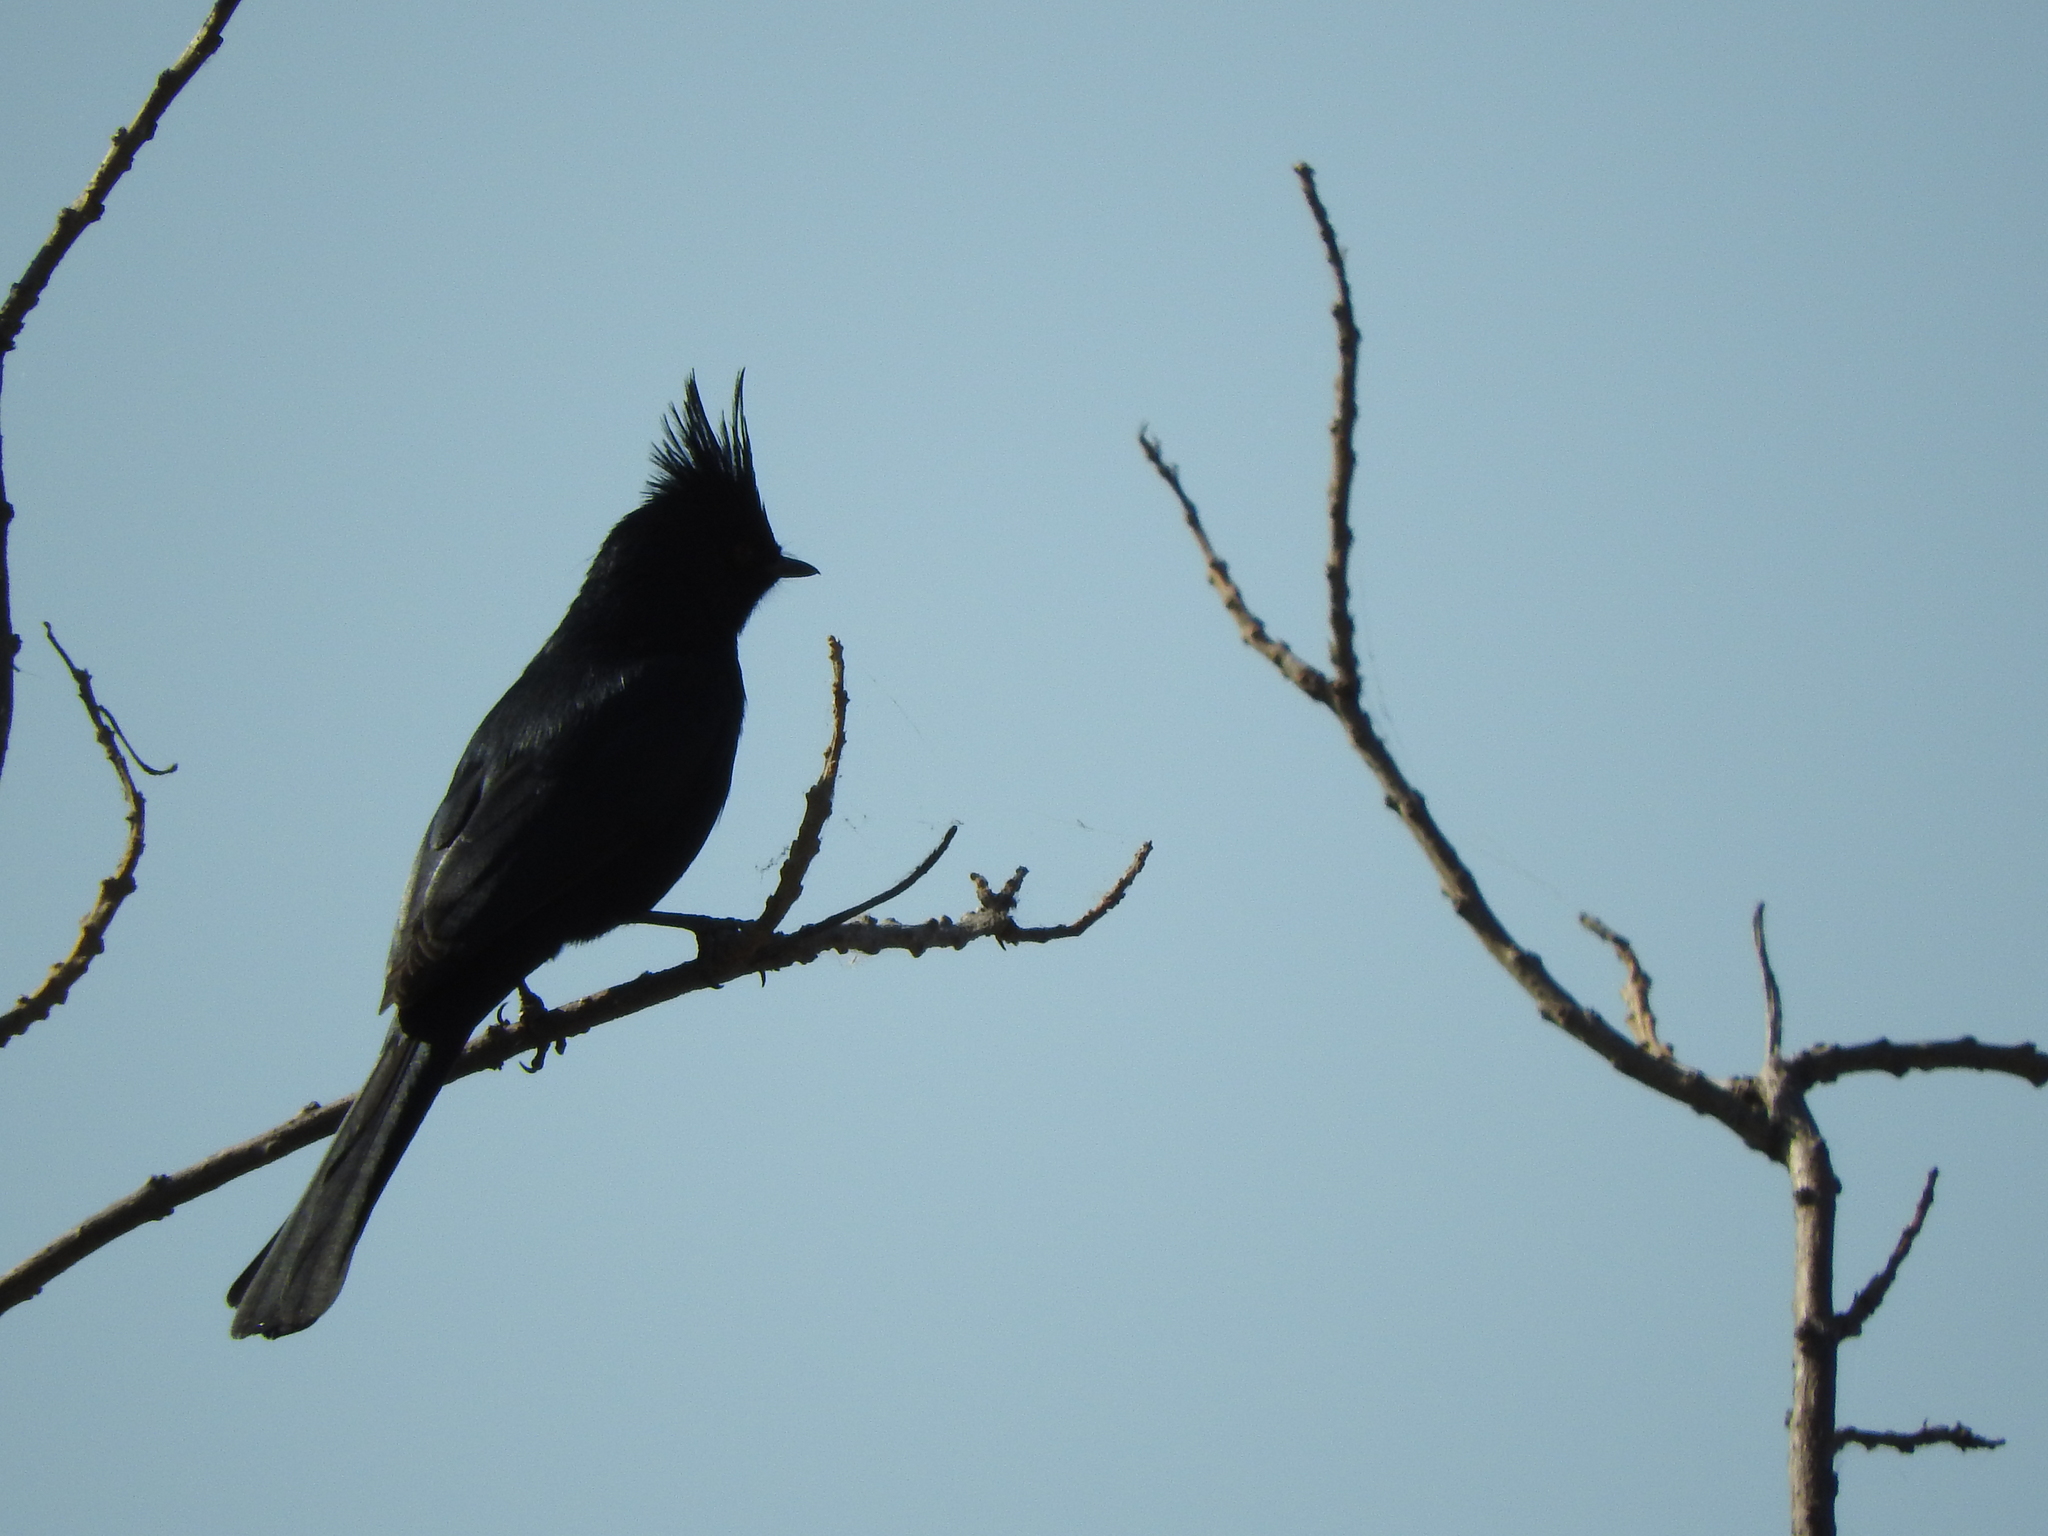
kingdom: Animalia
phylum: Chordata
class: Aves
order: Passeriformes
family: Ptilogonatidae
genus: Phainopepla
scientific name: Phainopepla nitens
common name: Phainopepla
